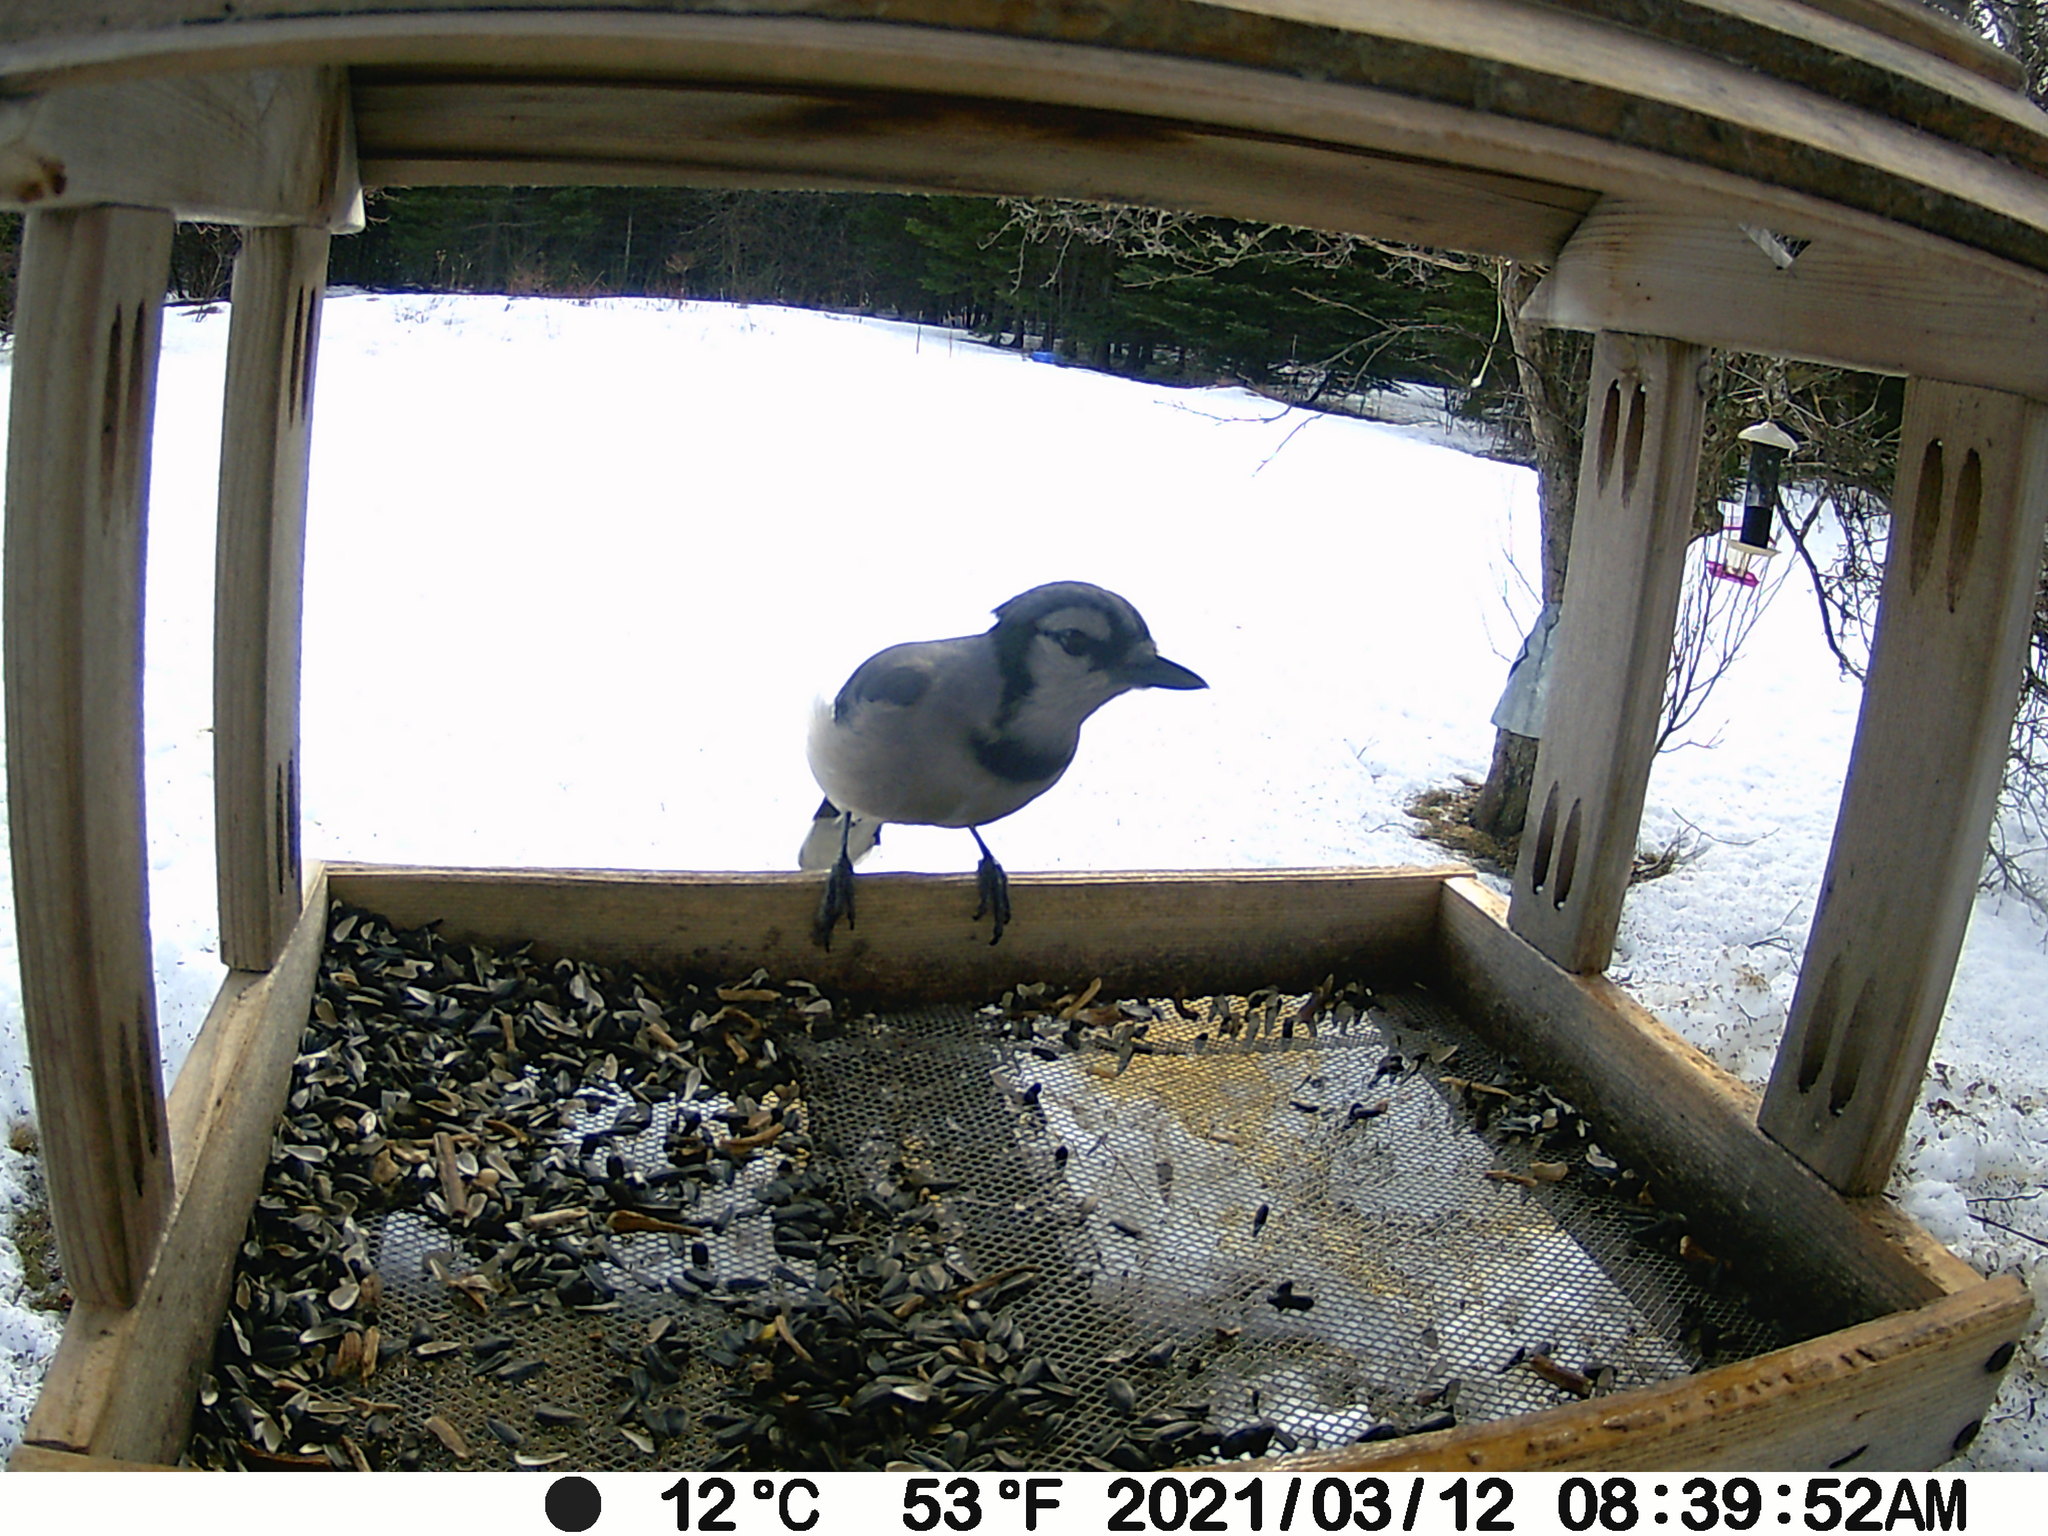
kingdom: Animalia
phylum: Chordata
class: Aves
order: Passeriformes
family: Corvidae
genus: Cyanocitta
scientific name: Cyanocitta cristata
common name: Blue jay
